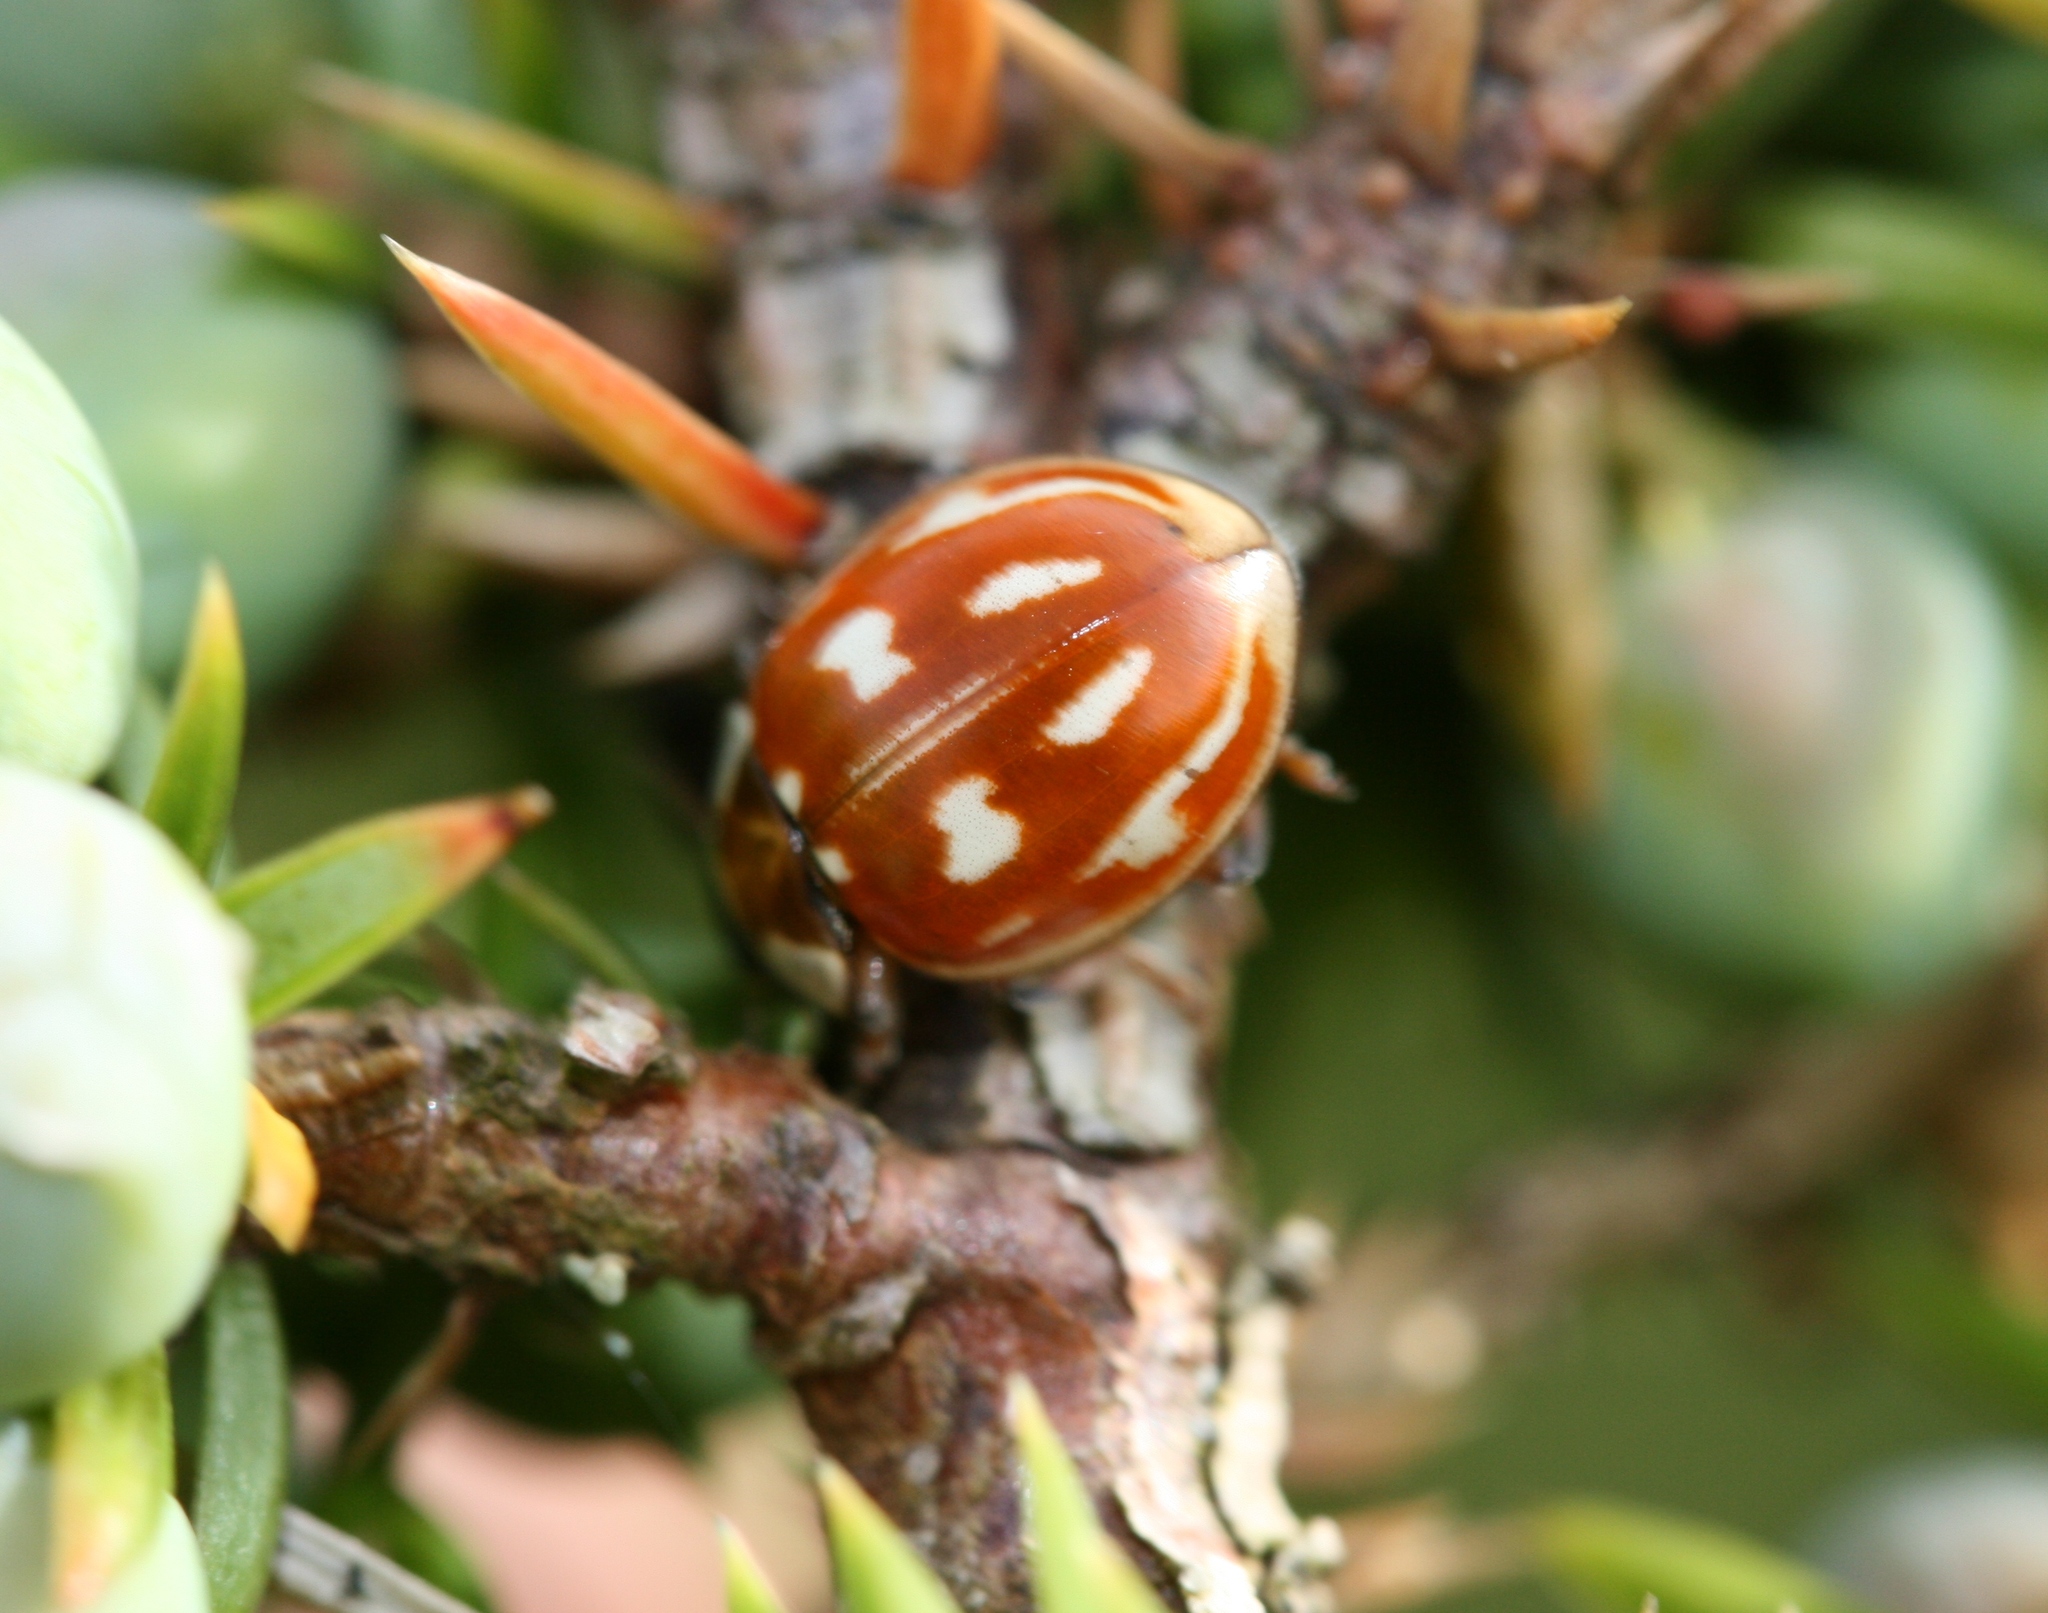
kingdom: Animalia
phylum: Arthropoda
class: Insecta
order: Coleoptera
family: Coccinellidae
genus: Myzia
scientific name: Myzia oblongoguttata
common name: Striped ladybird
